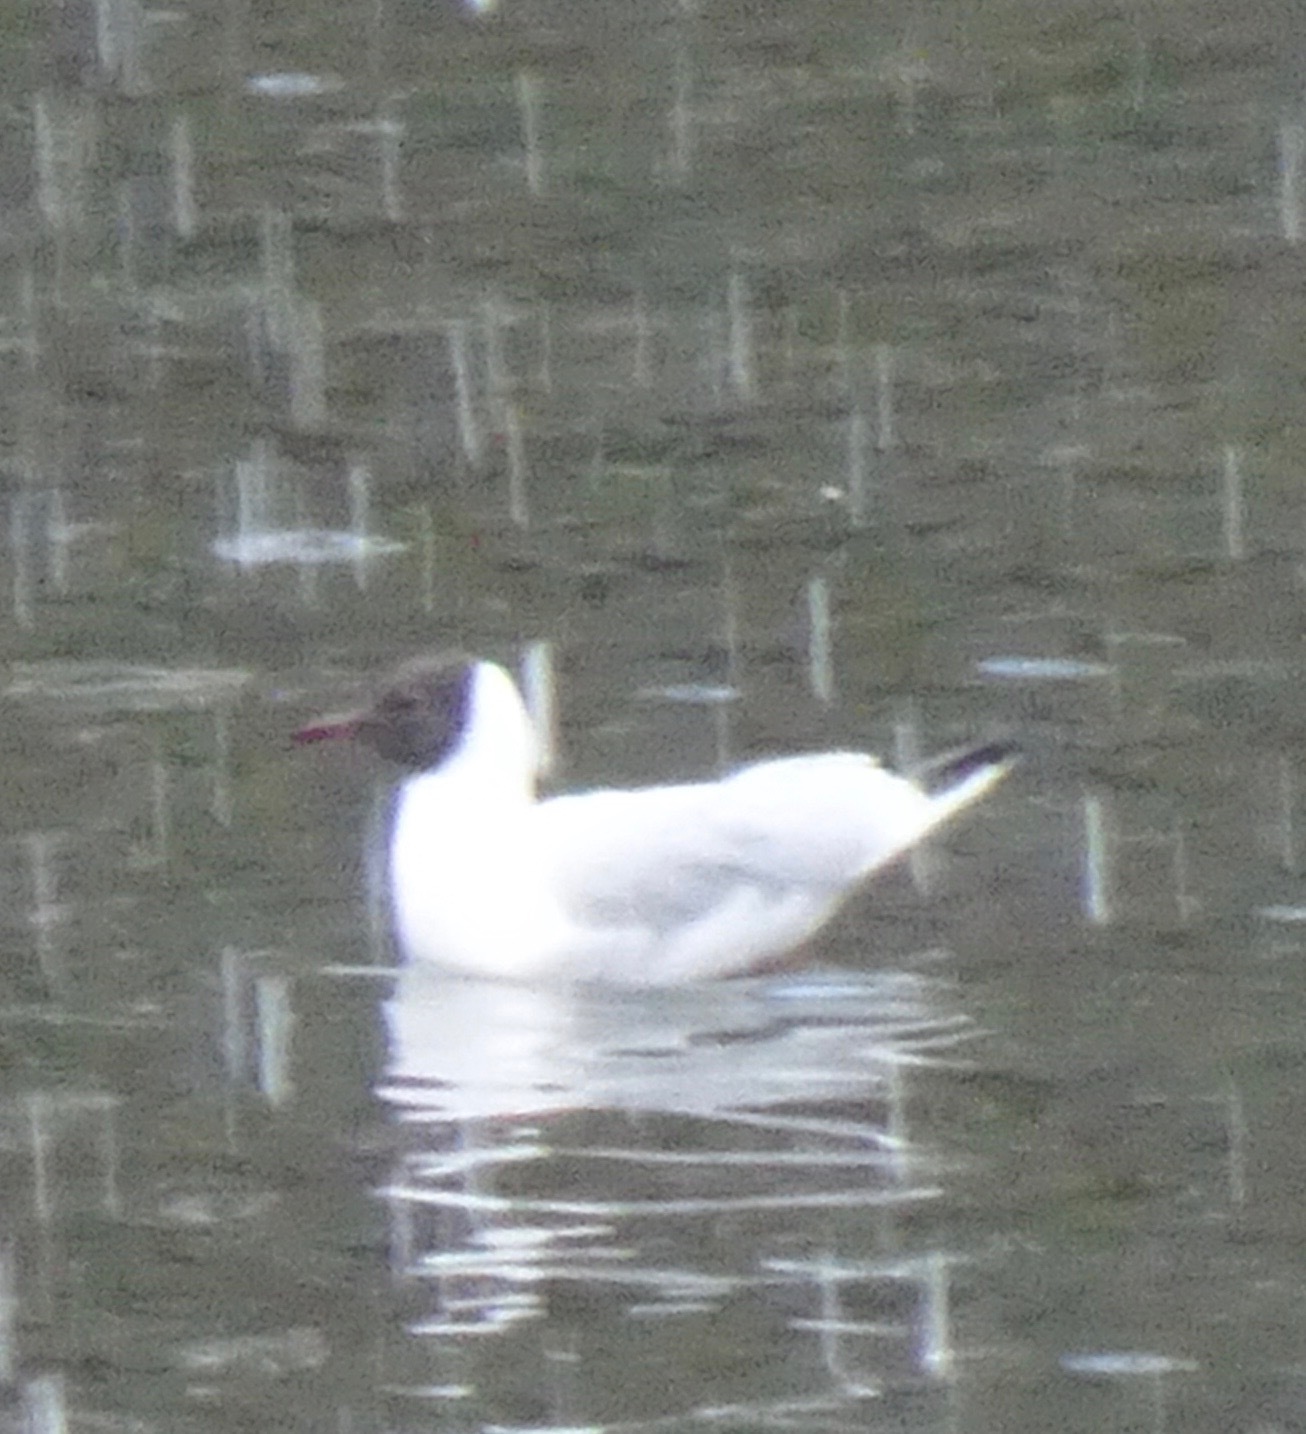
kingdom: Animalia
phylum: Chordata
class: Aves
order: Charadriiformes
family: Laridae
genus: Chroicocephalus
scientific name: Chroicocephalus ridibundus
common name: Black-headed gull
